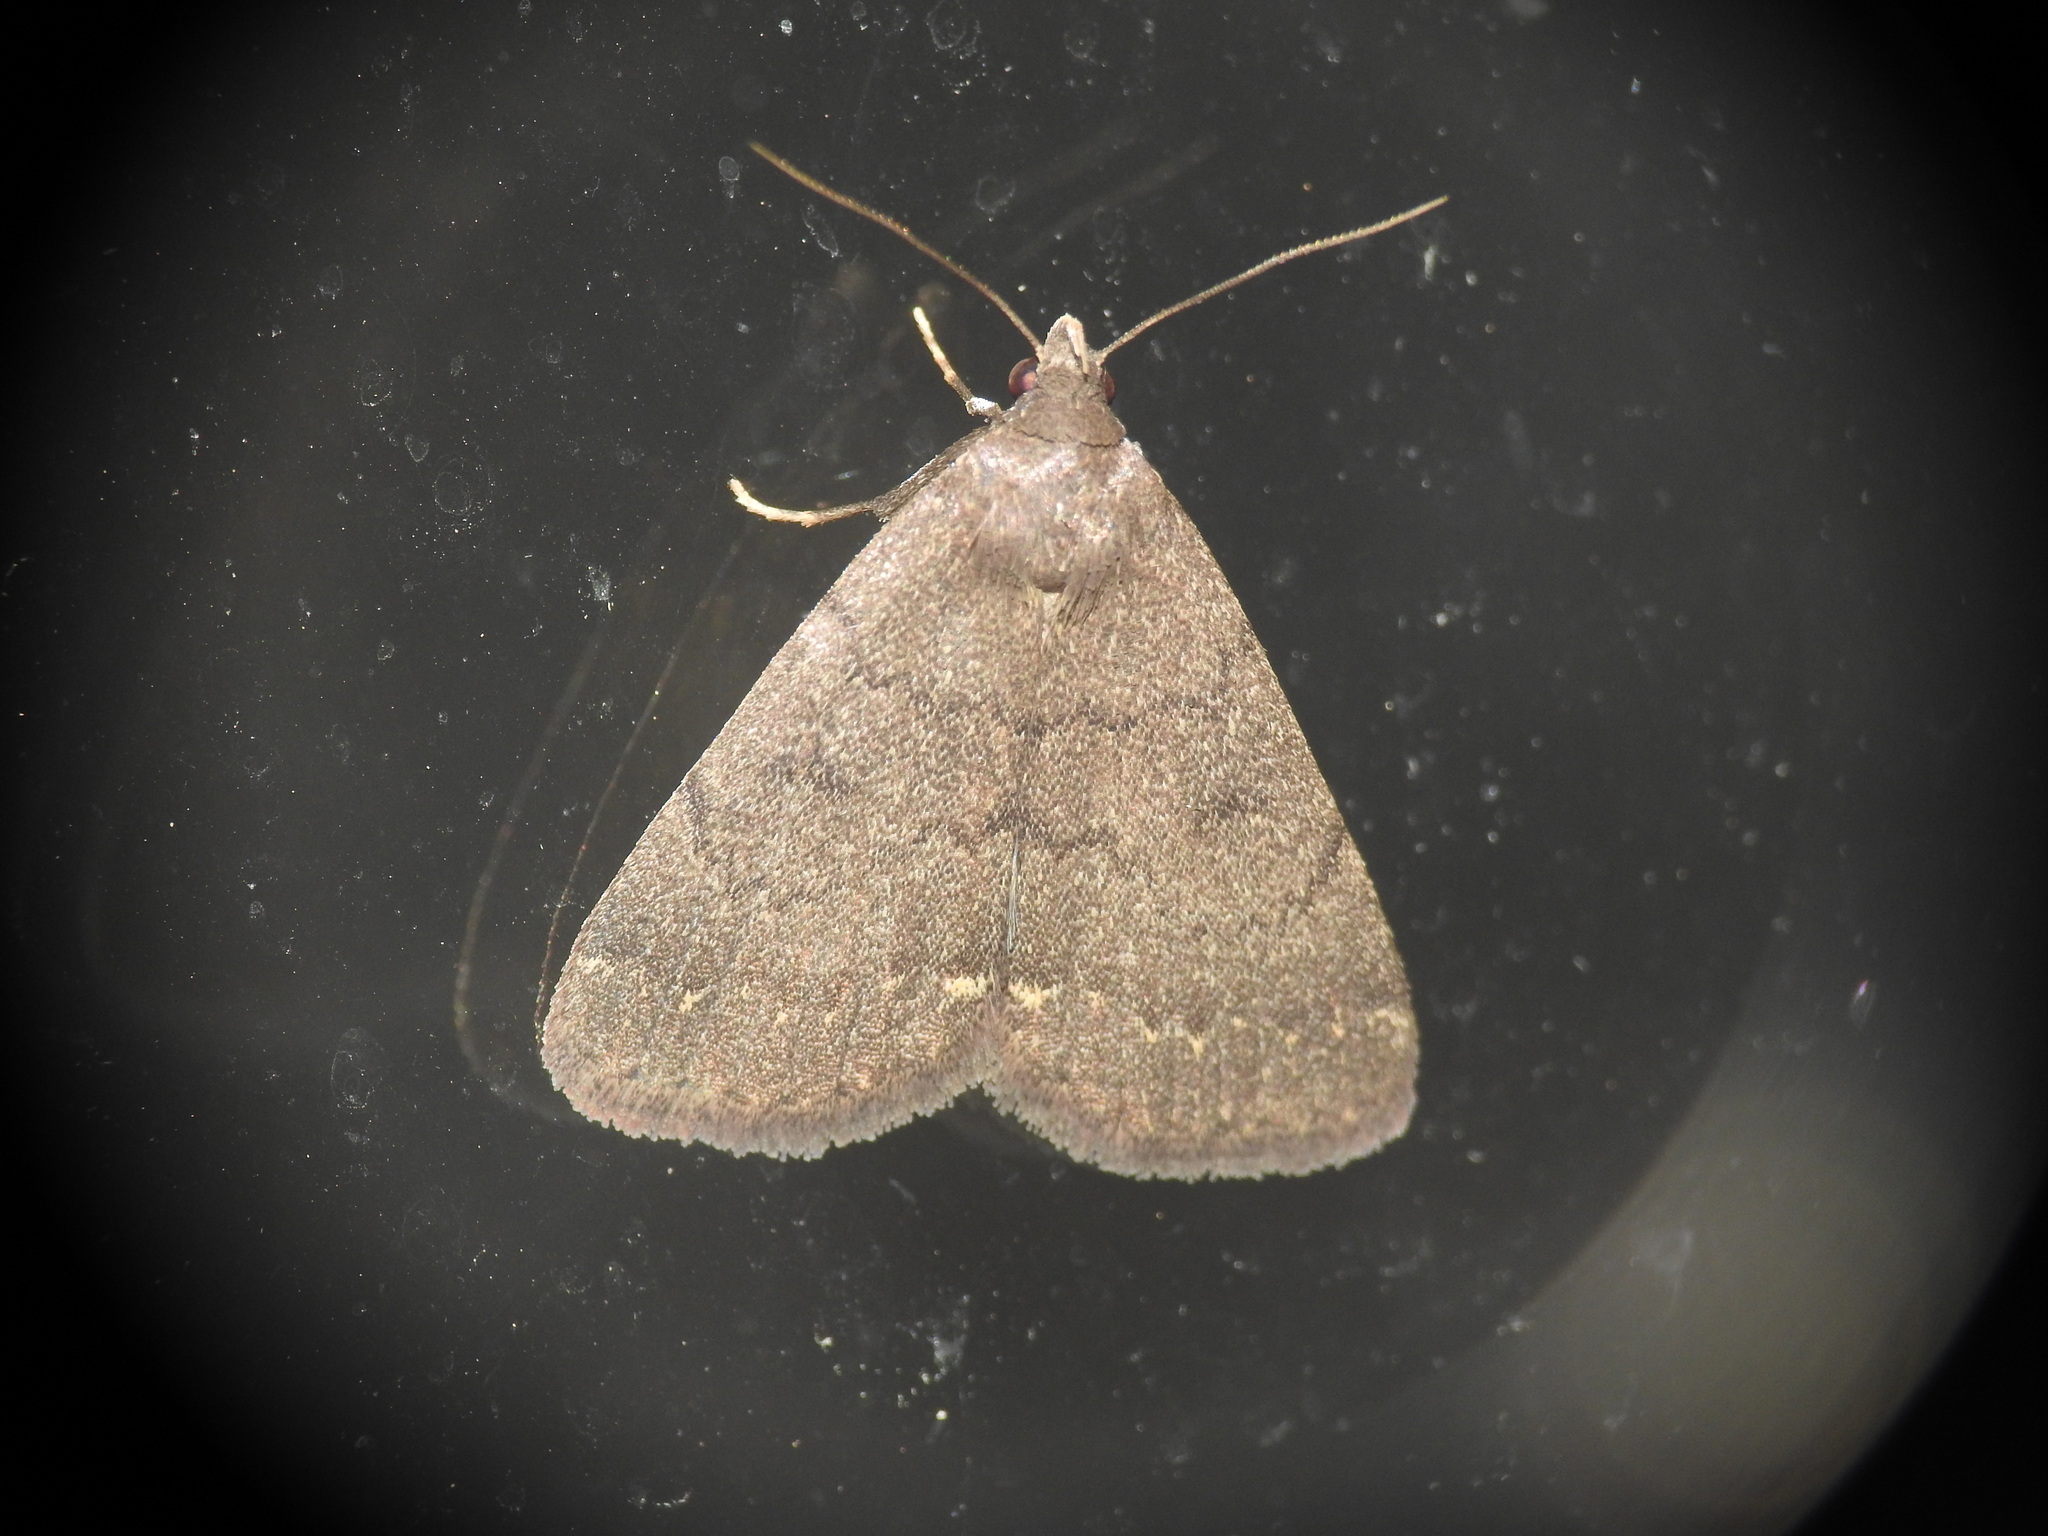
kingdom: Animalia
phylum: Arthropoda
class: Insecta
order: Lepidoptera
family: Erebidae
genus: Nodaria
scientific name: Nodaria nodosalis
